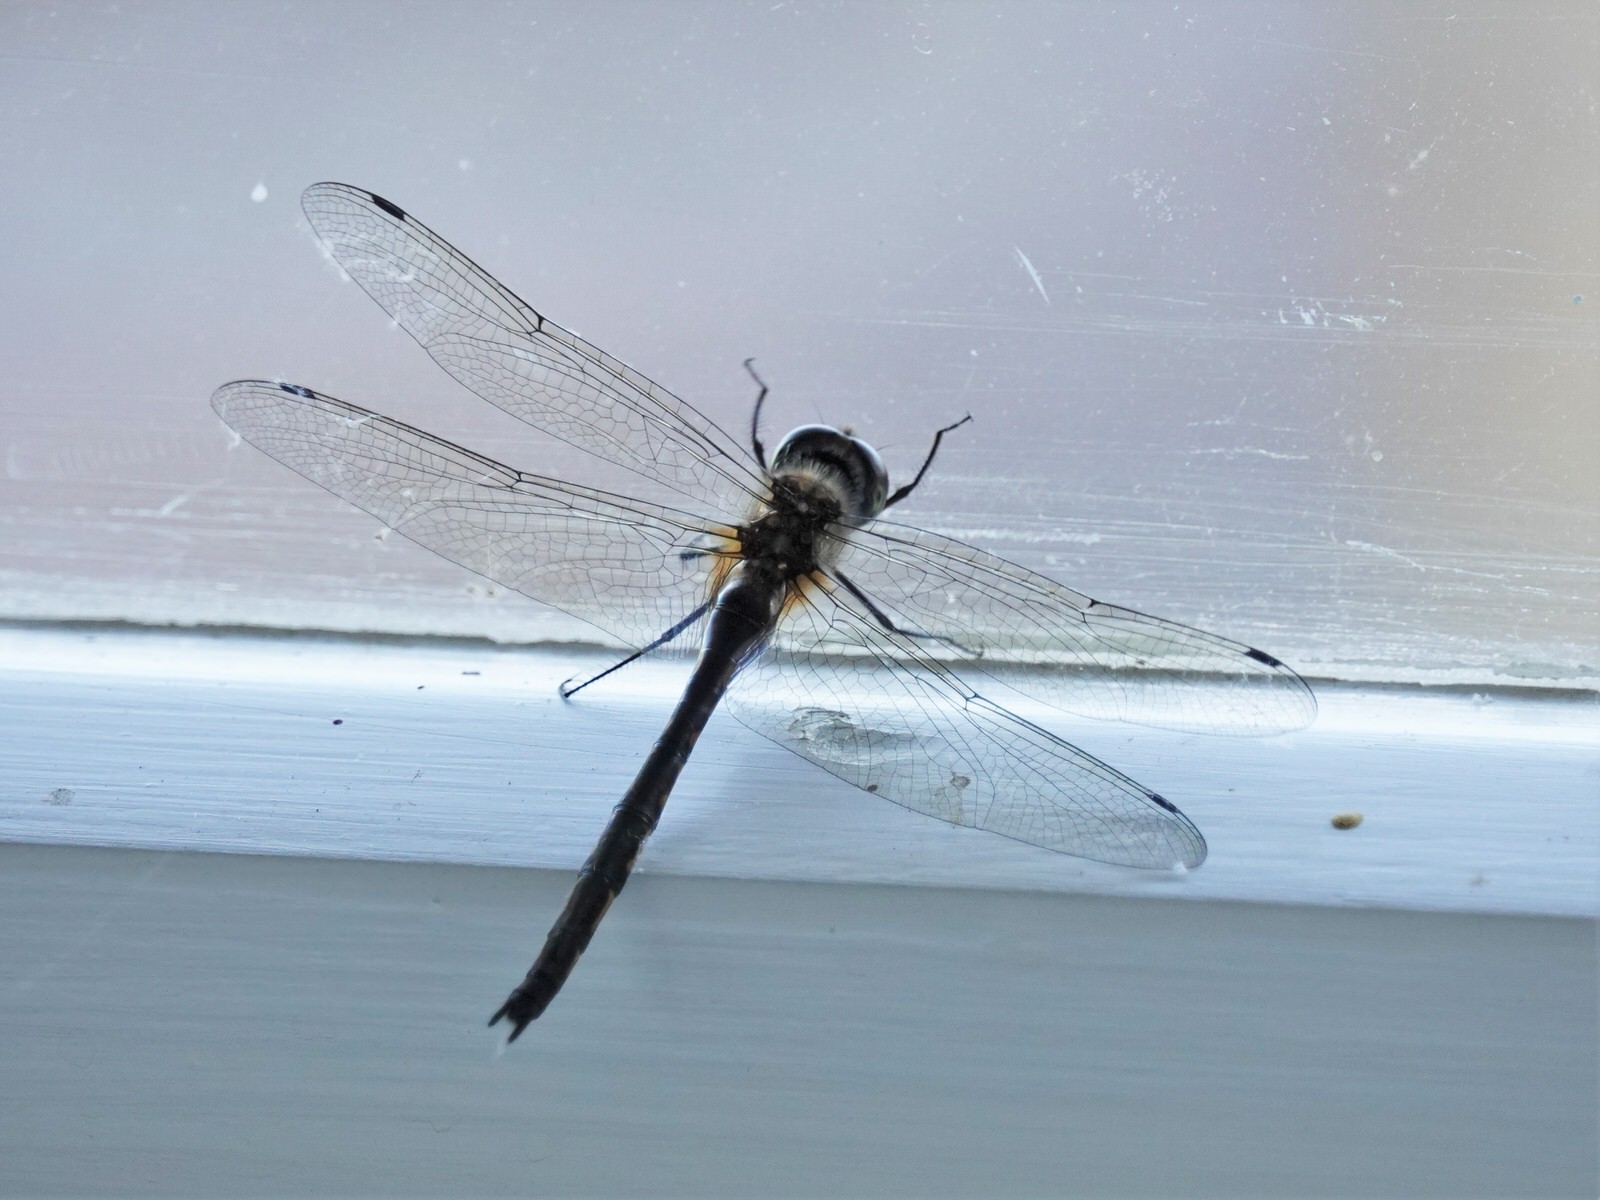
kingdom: Animalia
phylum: Arthropoda
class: Insecta
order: Odonata
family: Corduliidae
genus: Hemicordulia
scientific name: Hemicordulia australiae
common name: Sentry dragonfly
